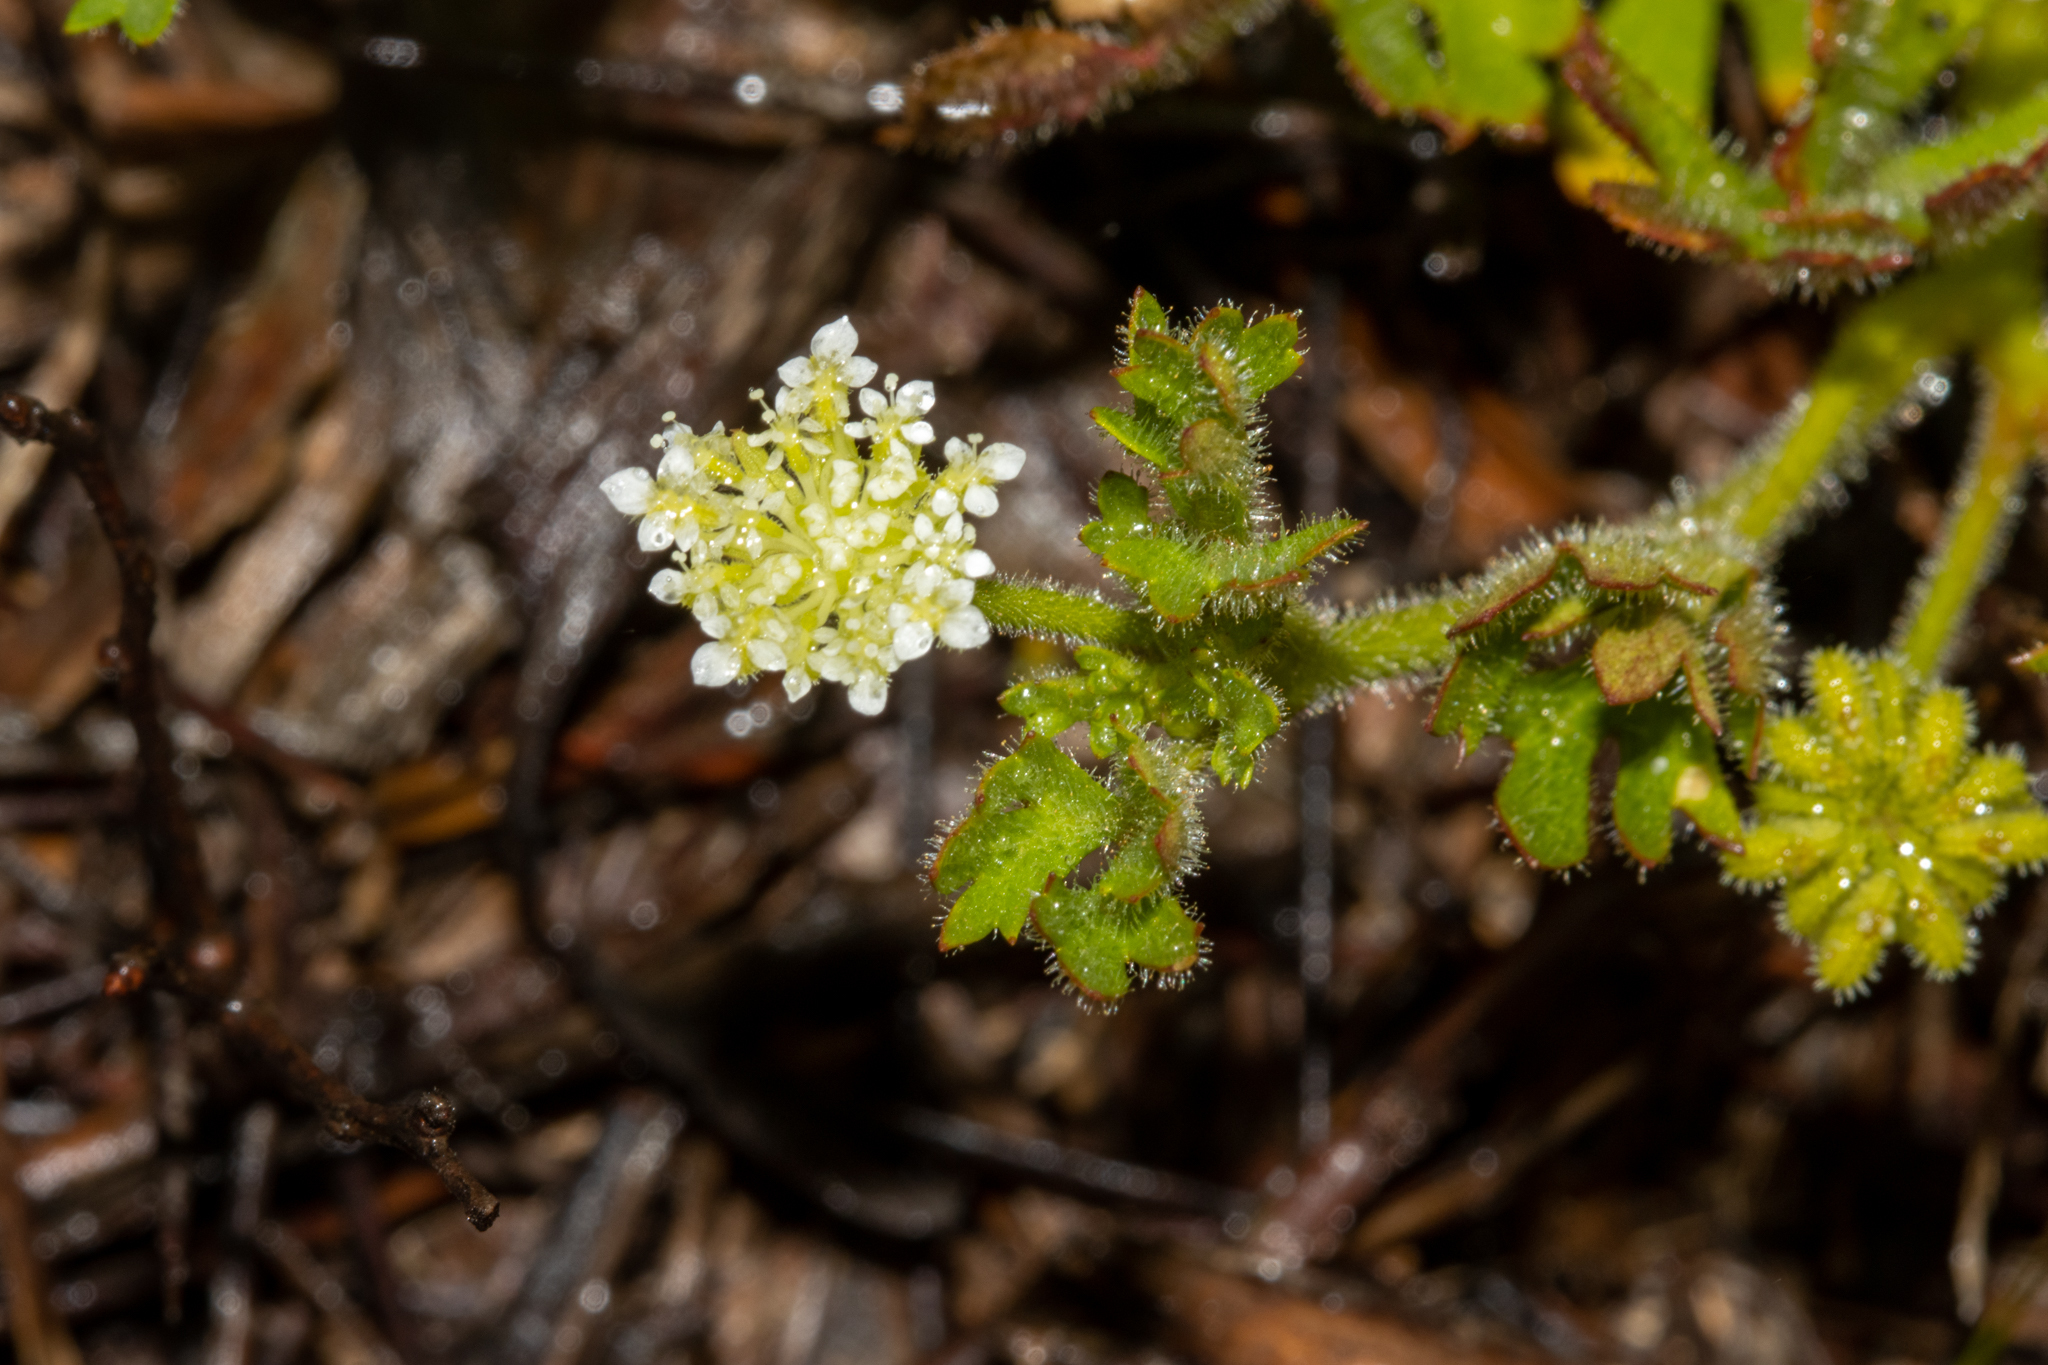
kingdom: Plantae
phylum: Tracheophyta
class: Magnoliopsida
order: Apiales
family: Araliaceae
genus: Trachymene
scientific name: Trachymene pilosa
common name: Dwarf trachymene
